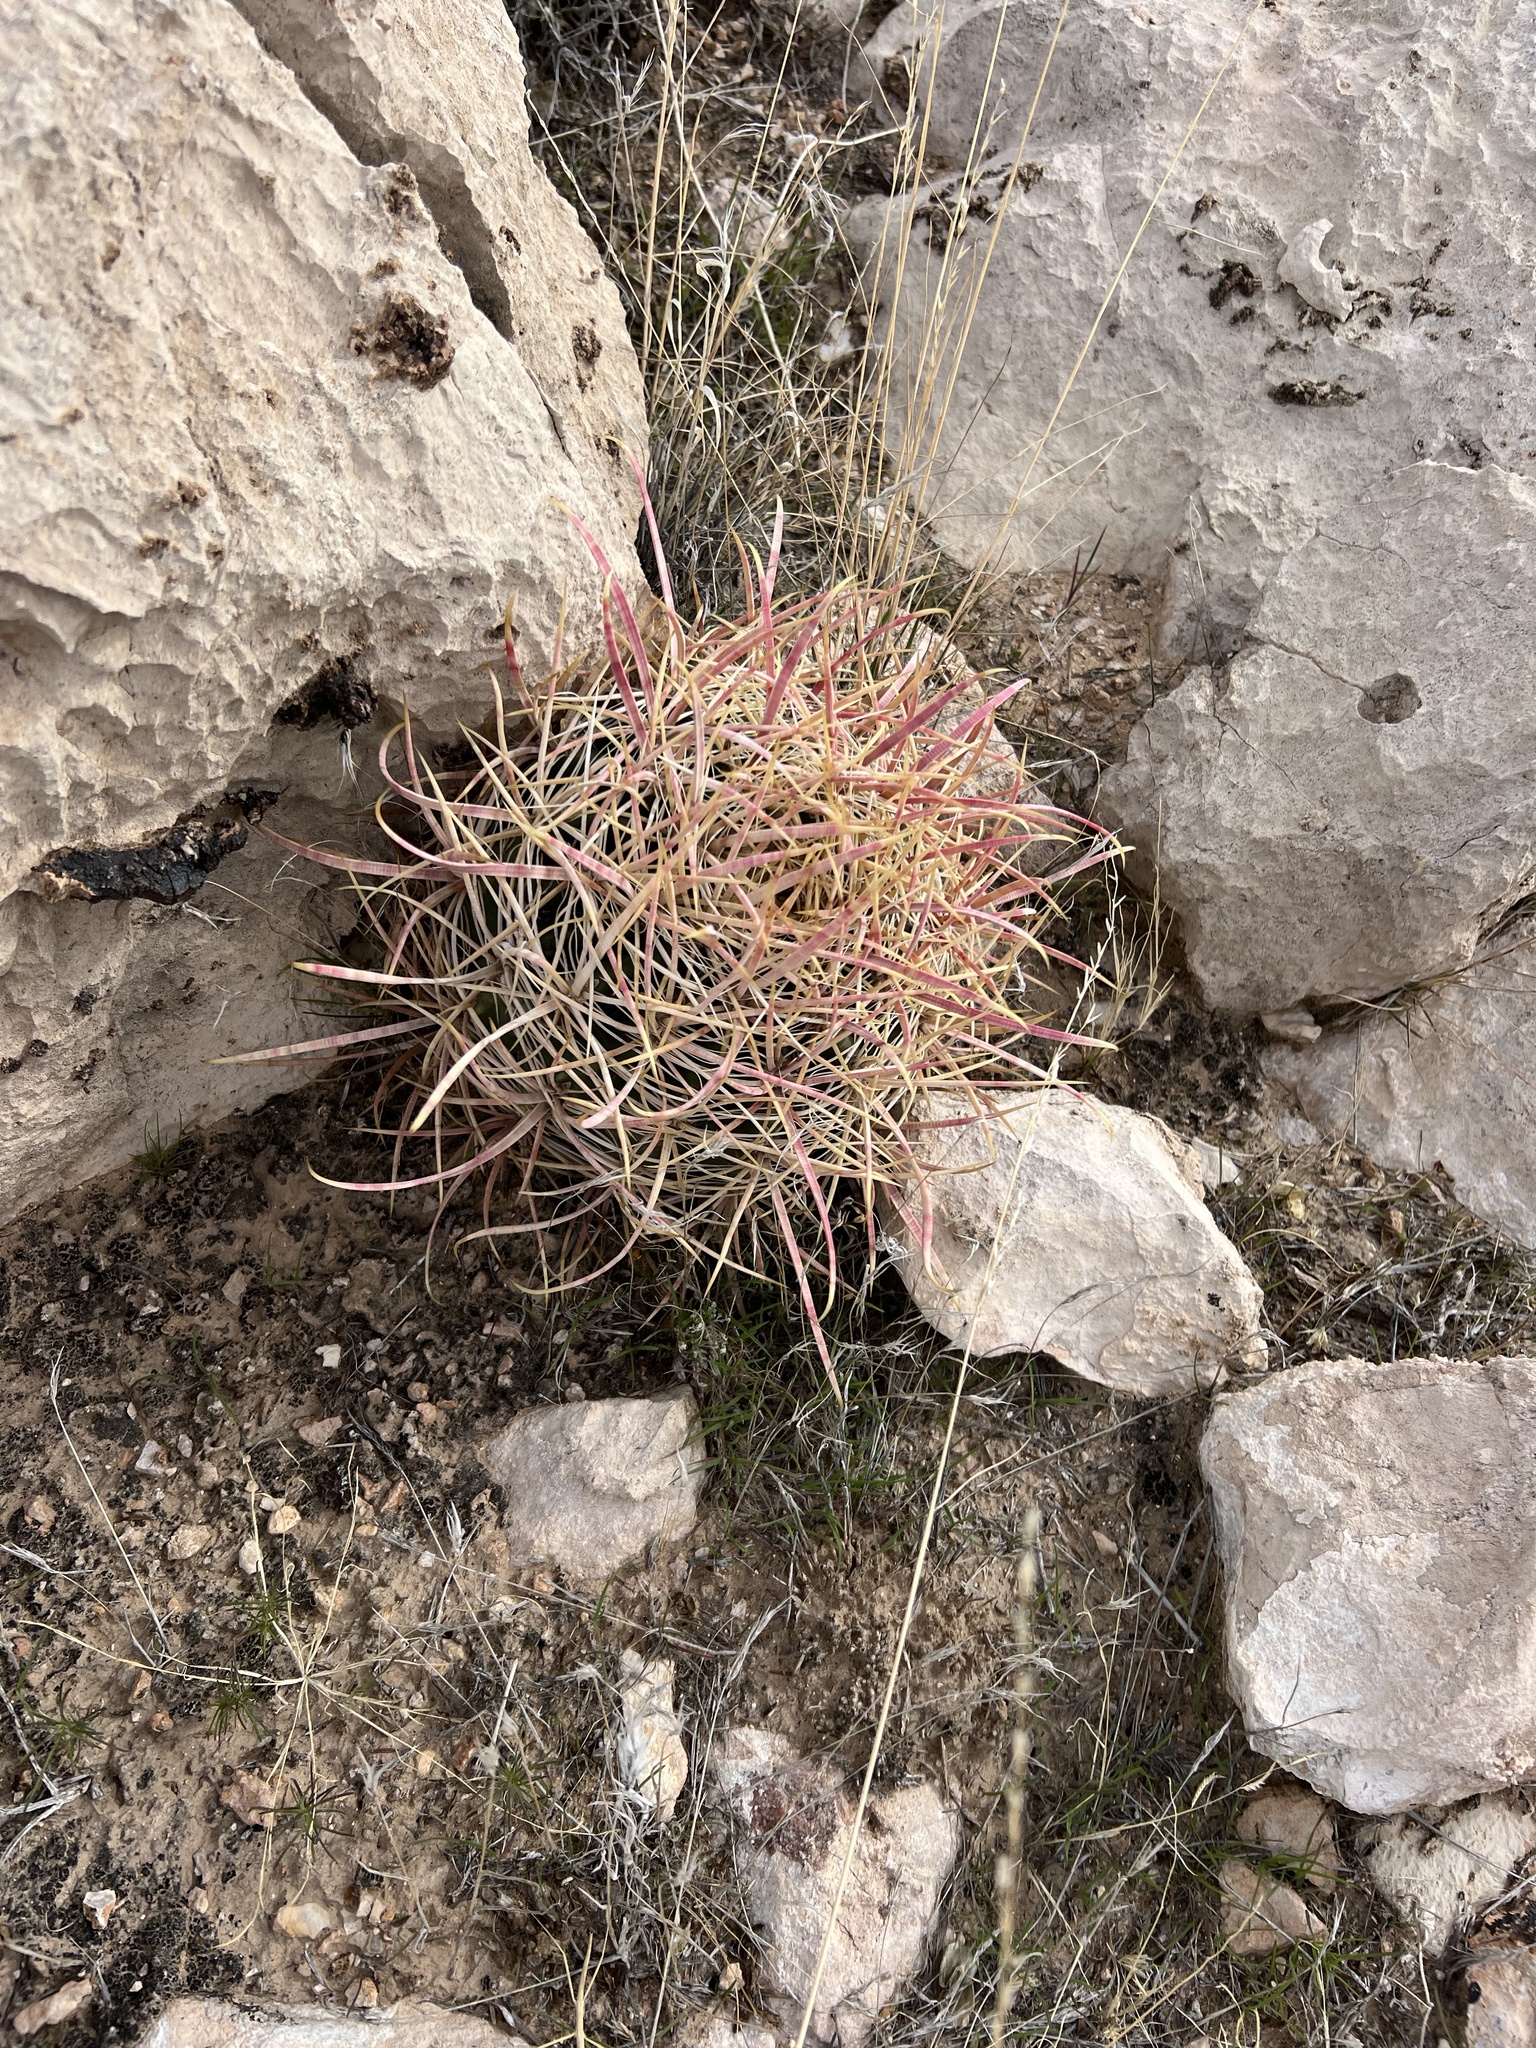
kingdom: Plantae
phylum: Tracheophyta
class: Magnoliopsida
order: Caryophyllales
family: Cactaceae
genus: Ferocactus
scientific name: Ferocactus cylindraceus
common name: California barrel cactus
